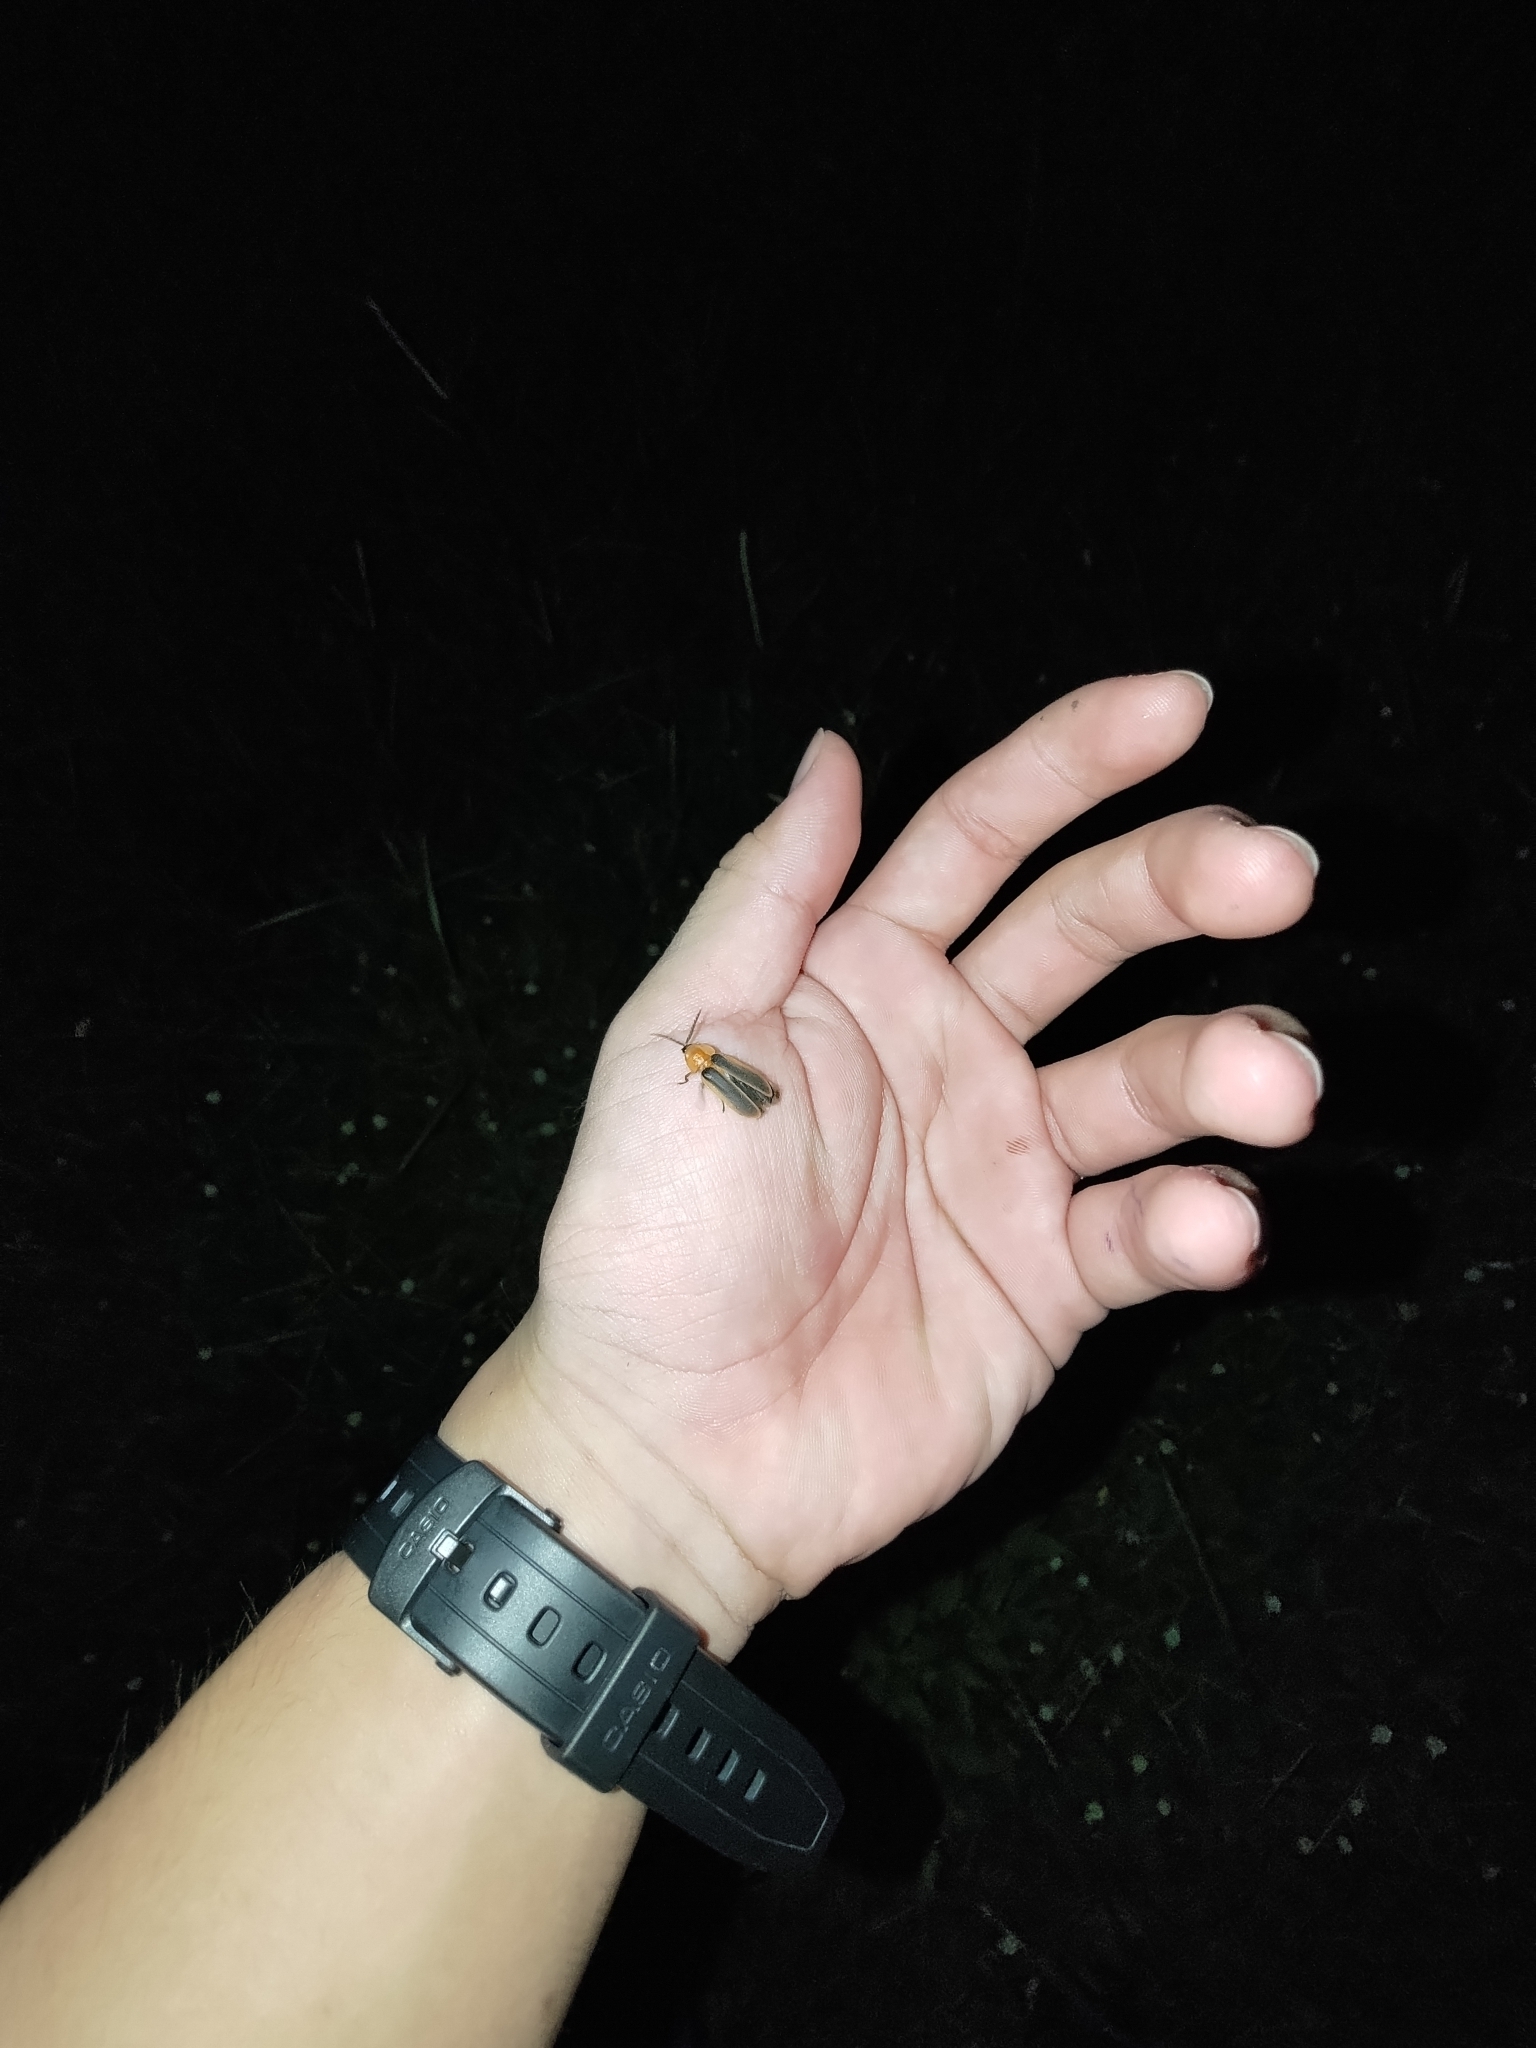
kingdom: Animalia
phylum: Arthropoda
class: Insecta
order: Coleoptera
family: Lampyridae
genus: Pyrocoelia
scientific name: Pyrocoelia analis
